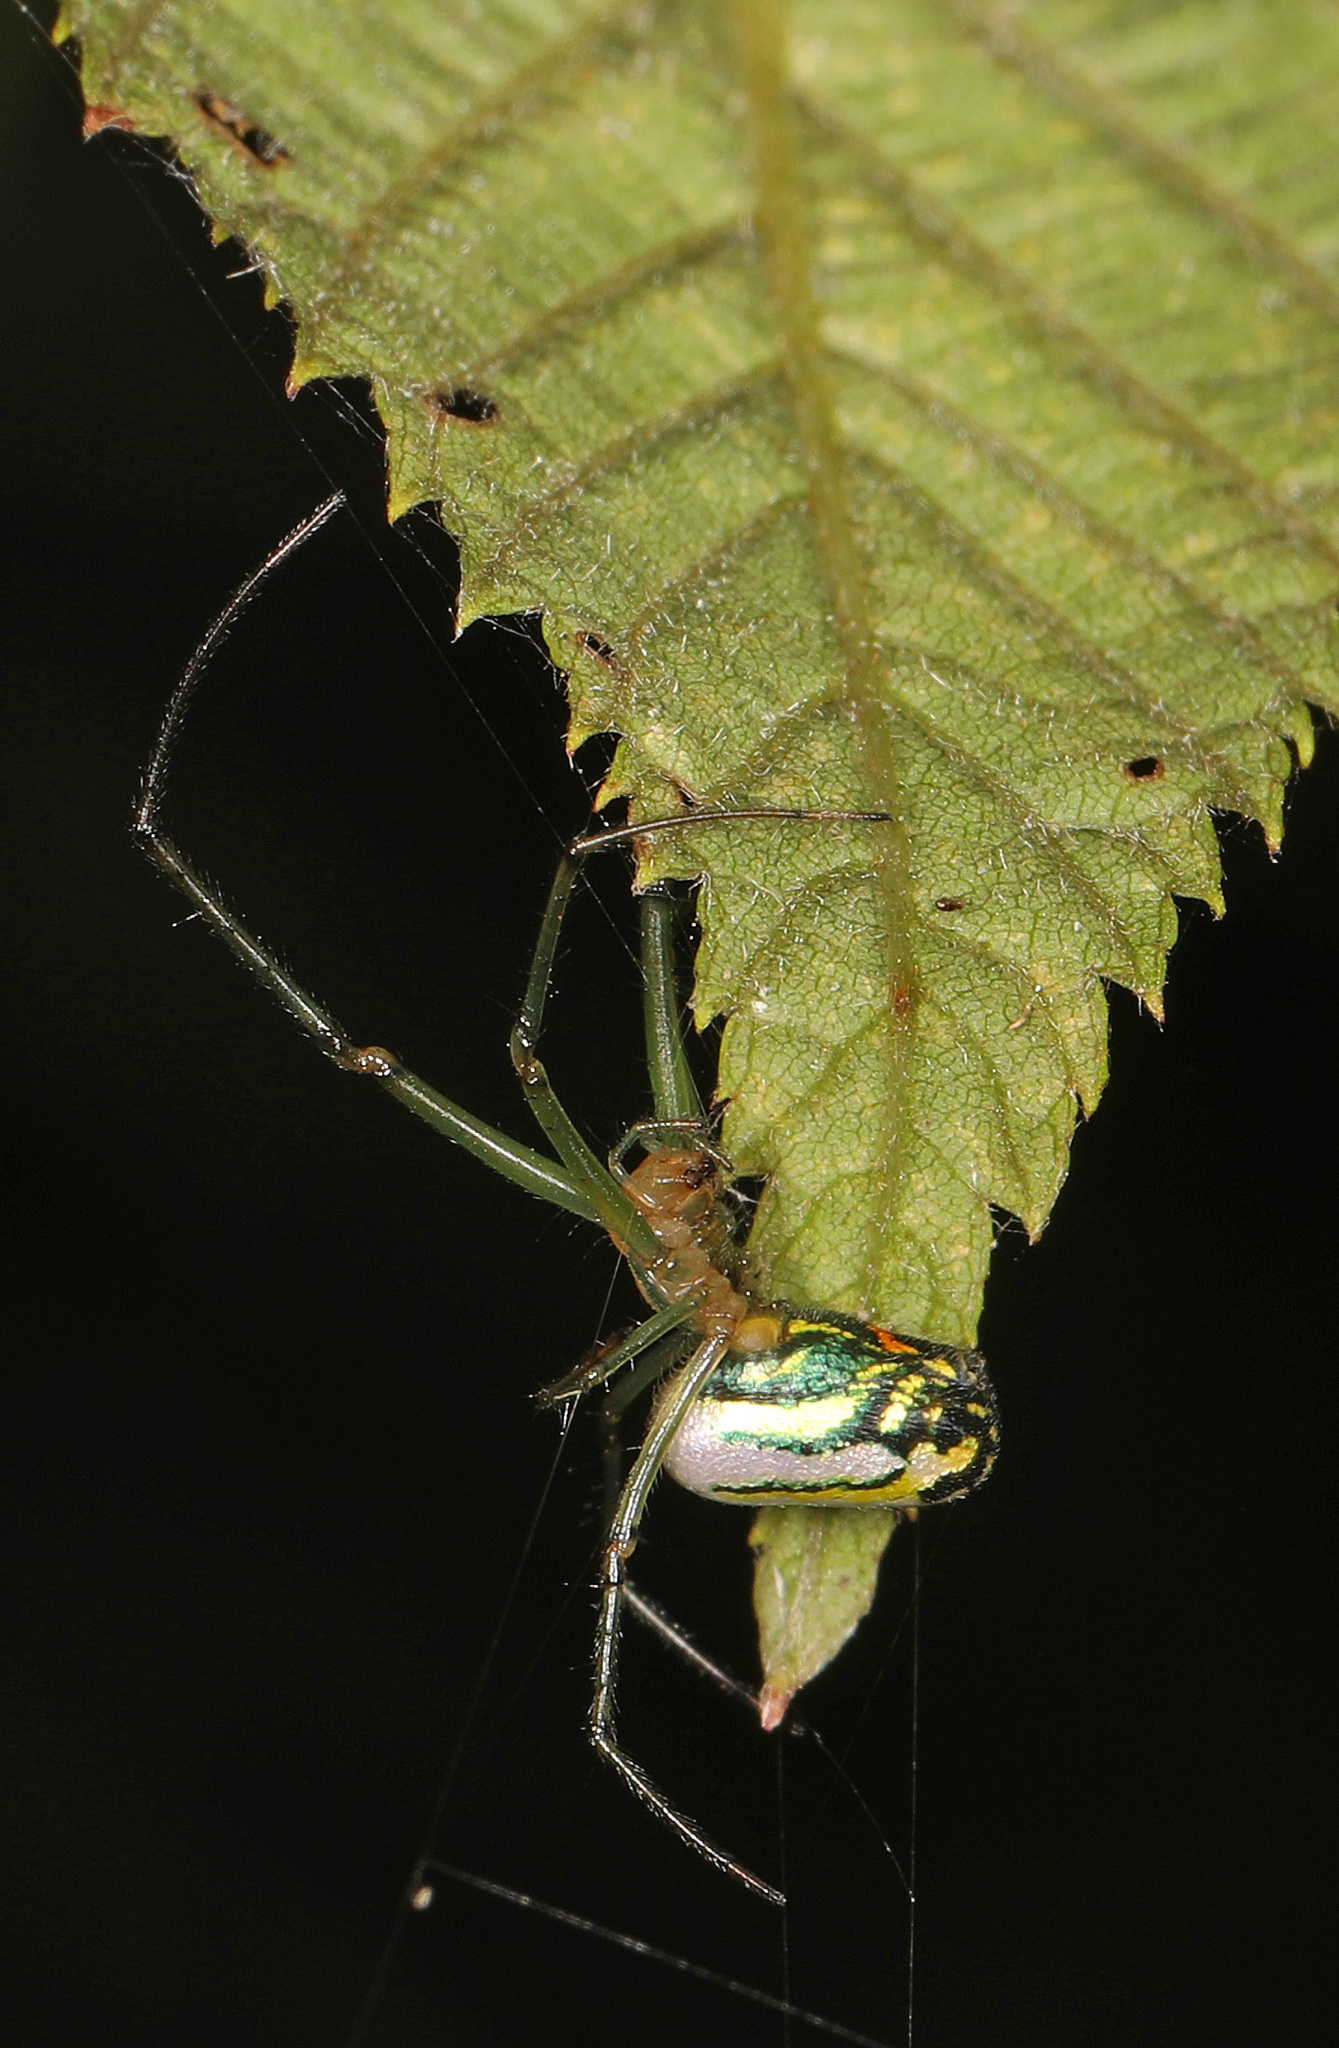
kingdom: Animalia
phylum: Arthropoda
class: Arachnida
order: Araneae
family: Tetragnathidae
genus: Leucauge
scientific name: Leucauge venusta
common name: Longjawed orb weavers
